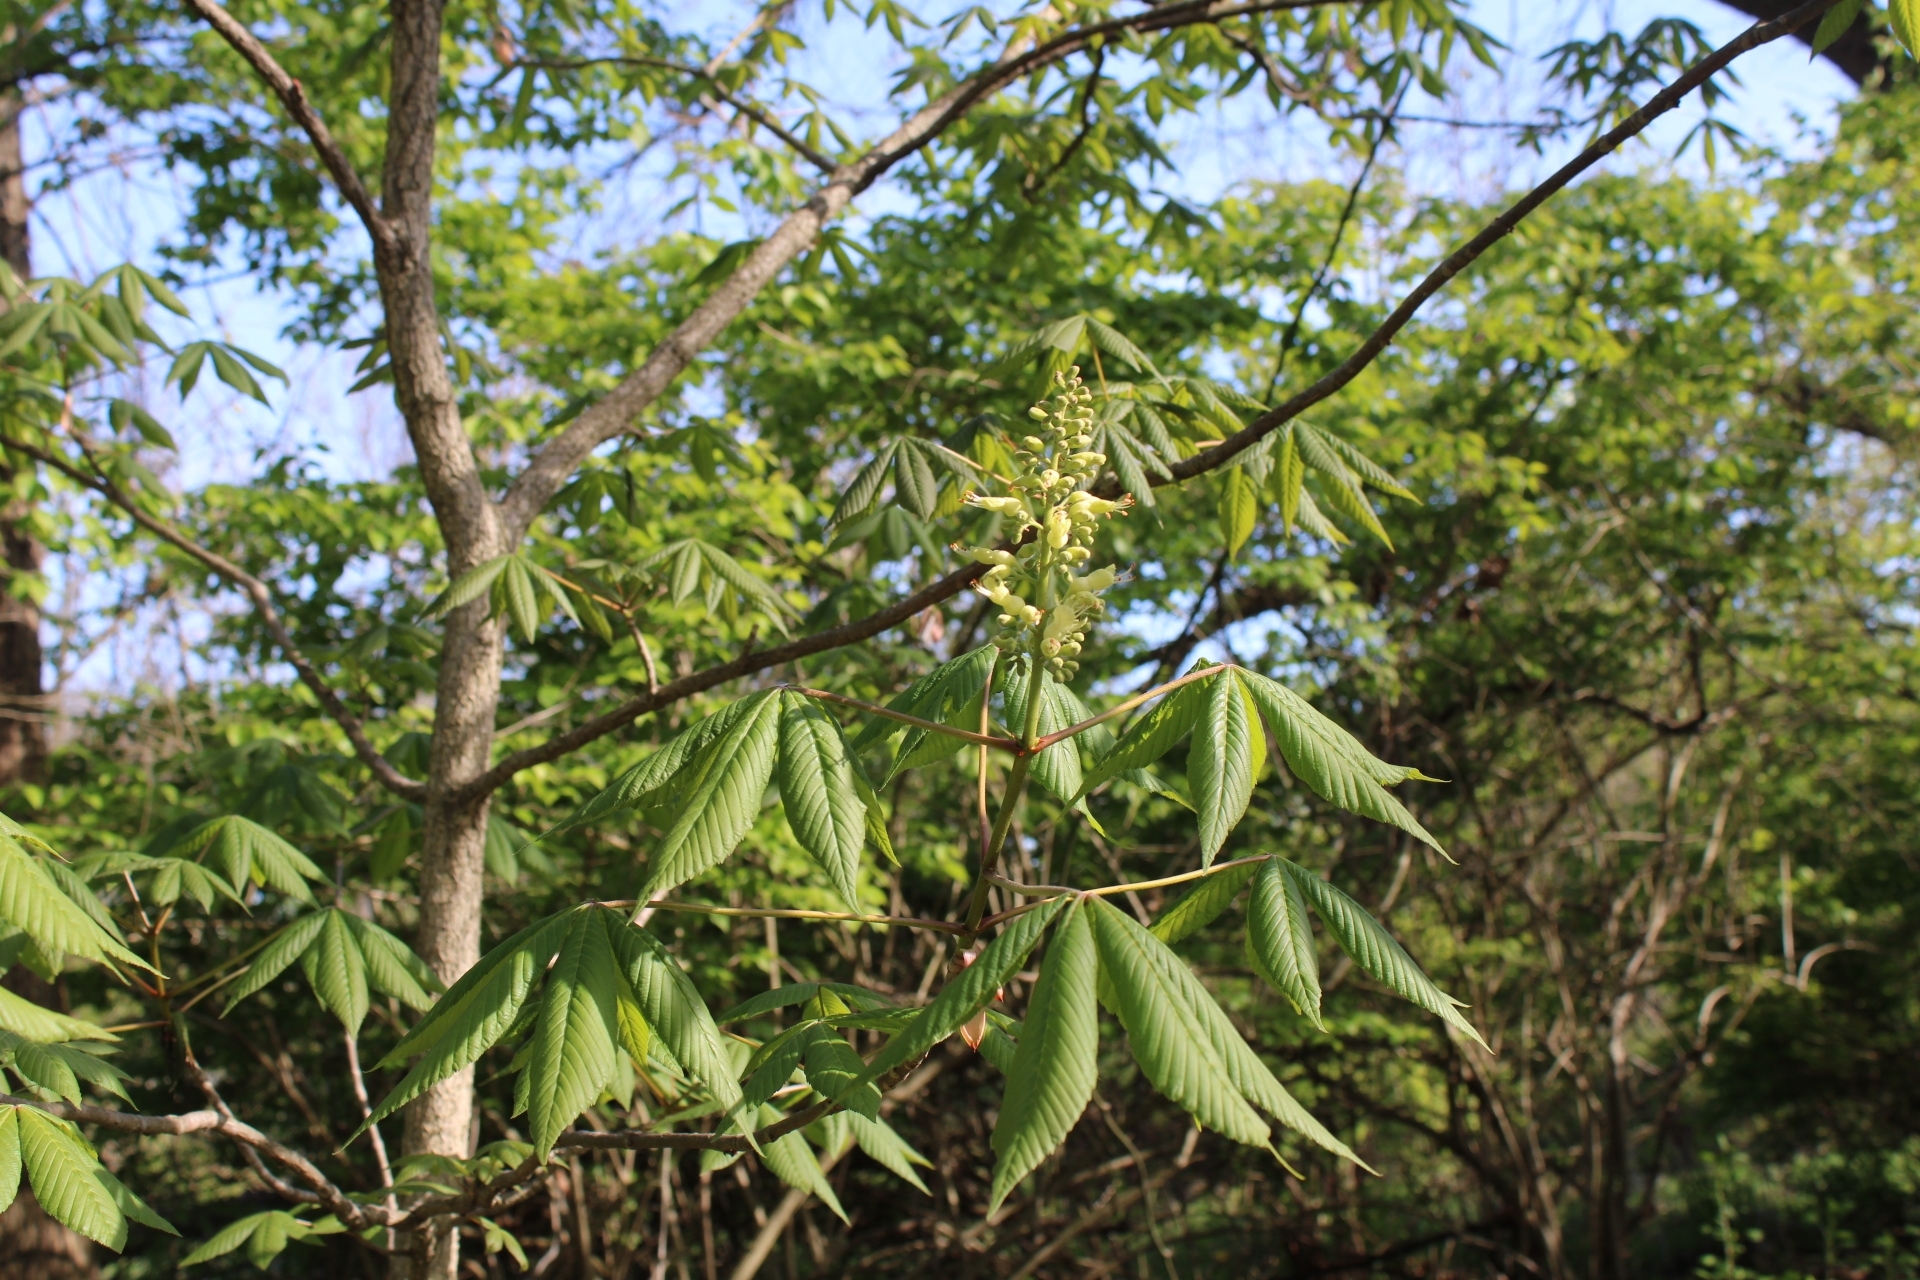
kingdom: Plantae
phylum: Tracheophyta
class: Magnoliopsida
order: Sapindales
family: Sapindaceae
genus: Aesculus
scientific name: Aesculus glabra
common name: Ohio buckeye
